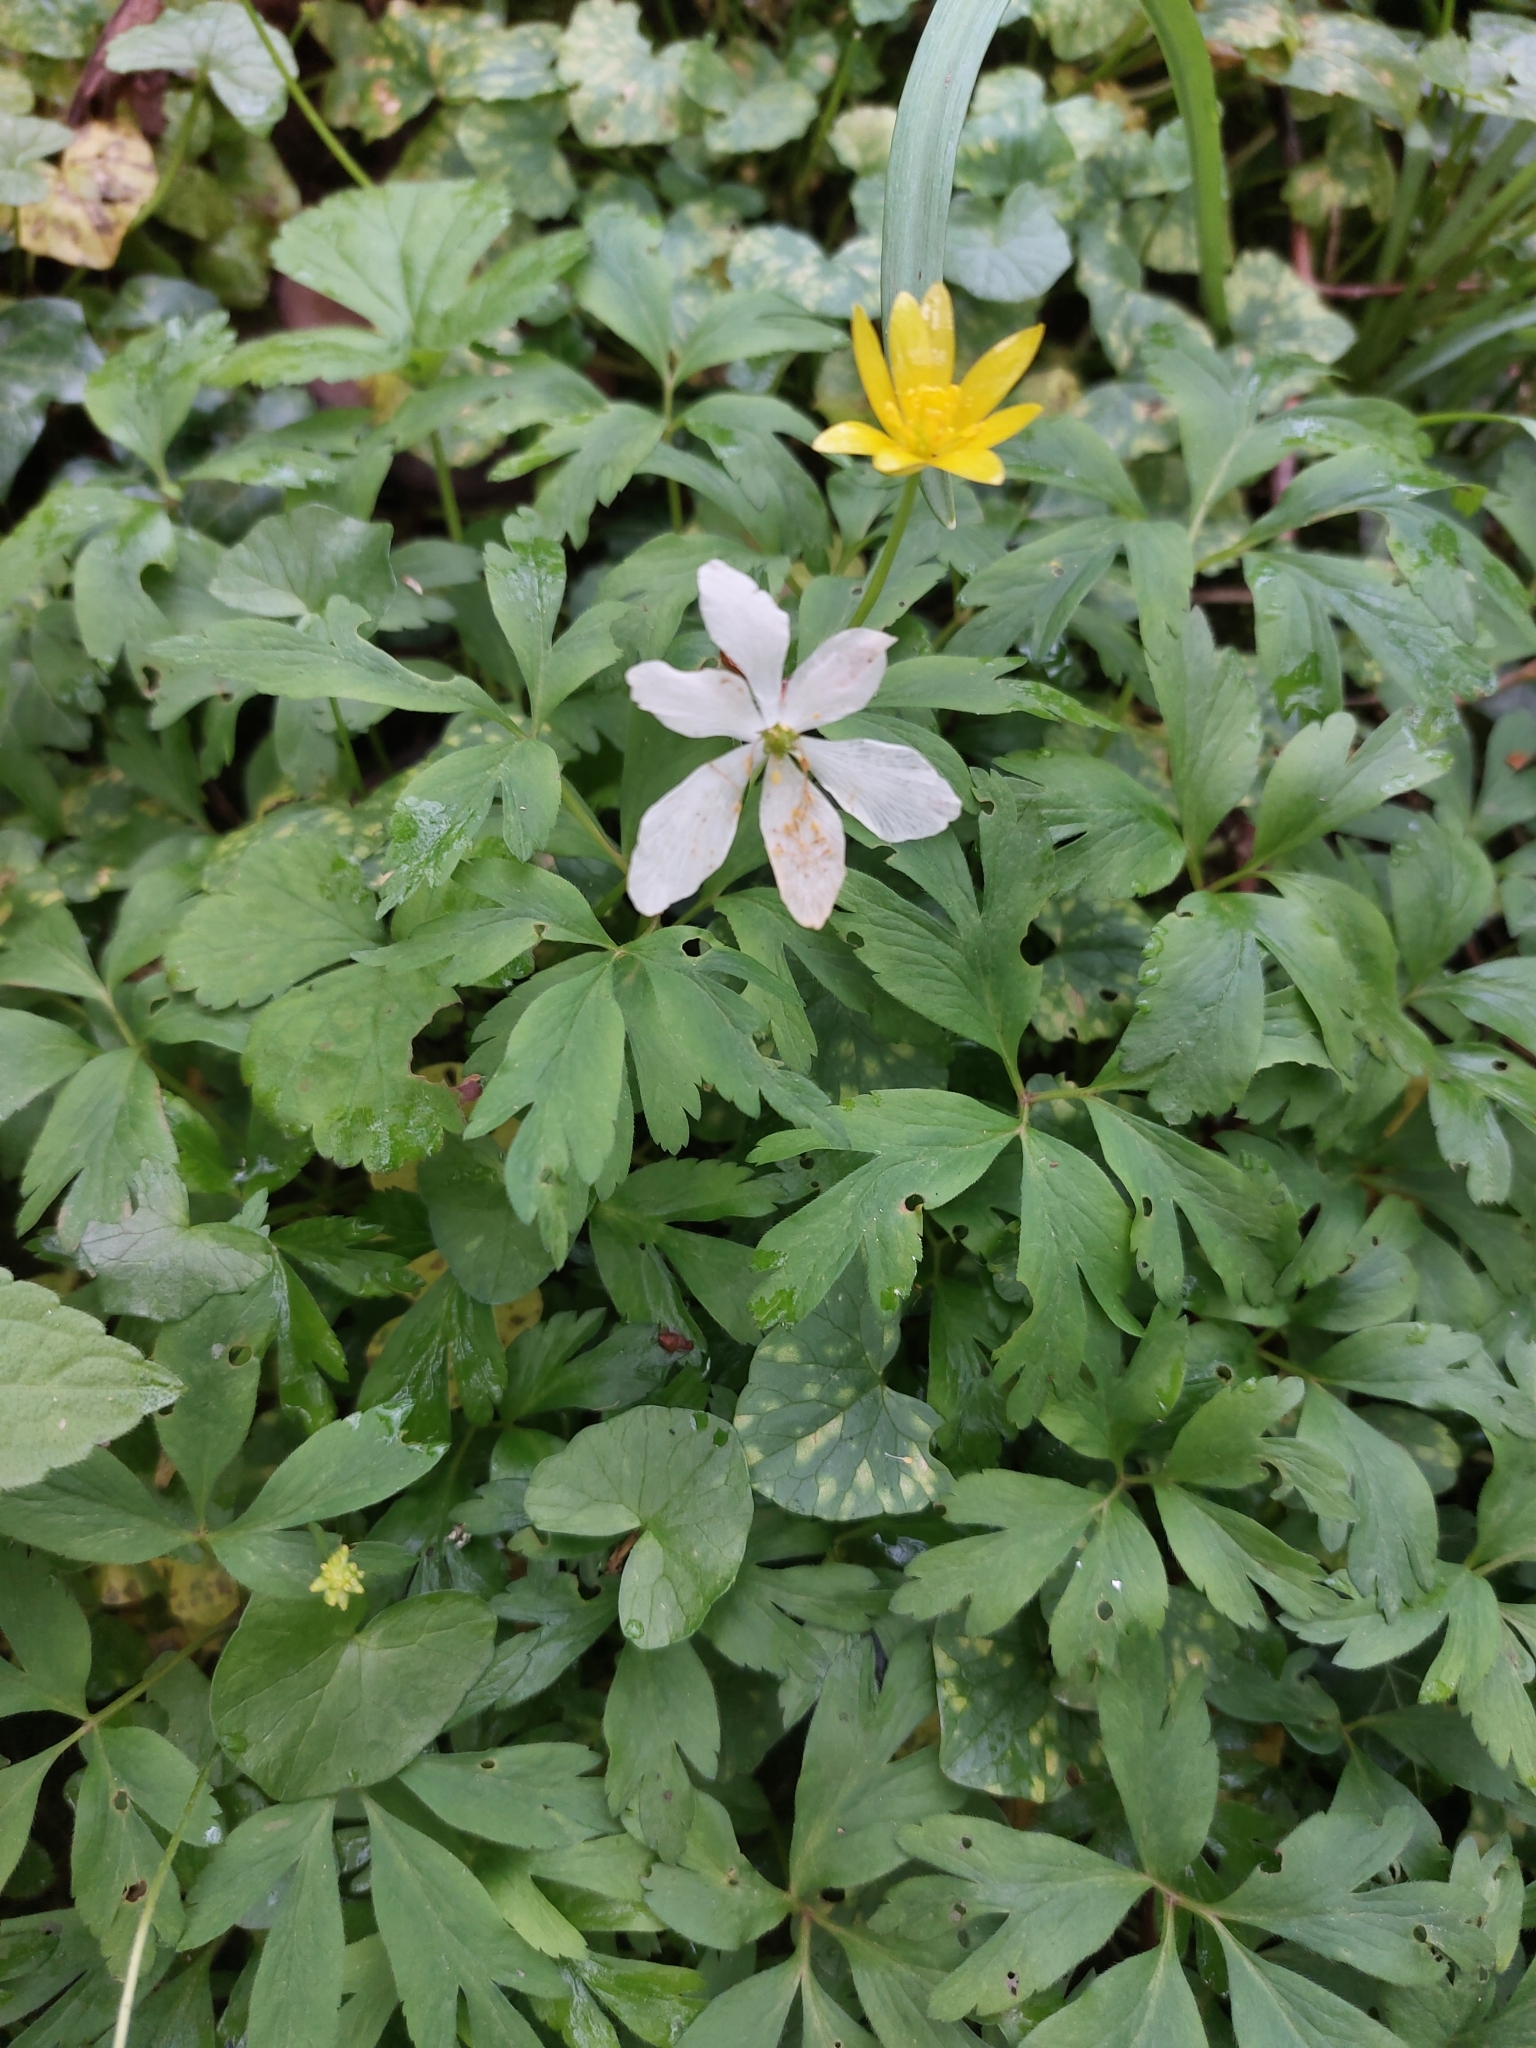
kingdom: Plantae
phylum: Tracheophyta
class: Magnoliopsida
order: Ranunculales
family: Ranunculaceae
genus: Anemone
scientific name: Anemone nemorosa
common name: Wood anemone
